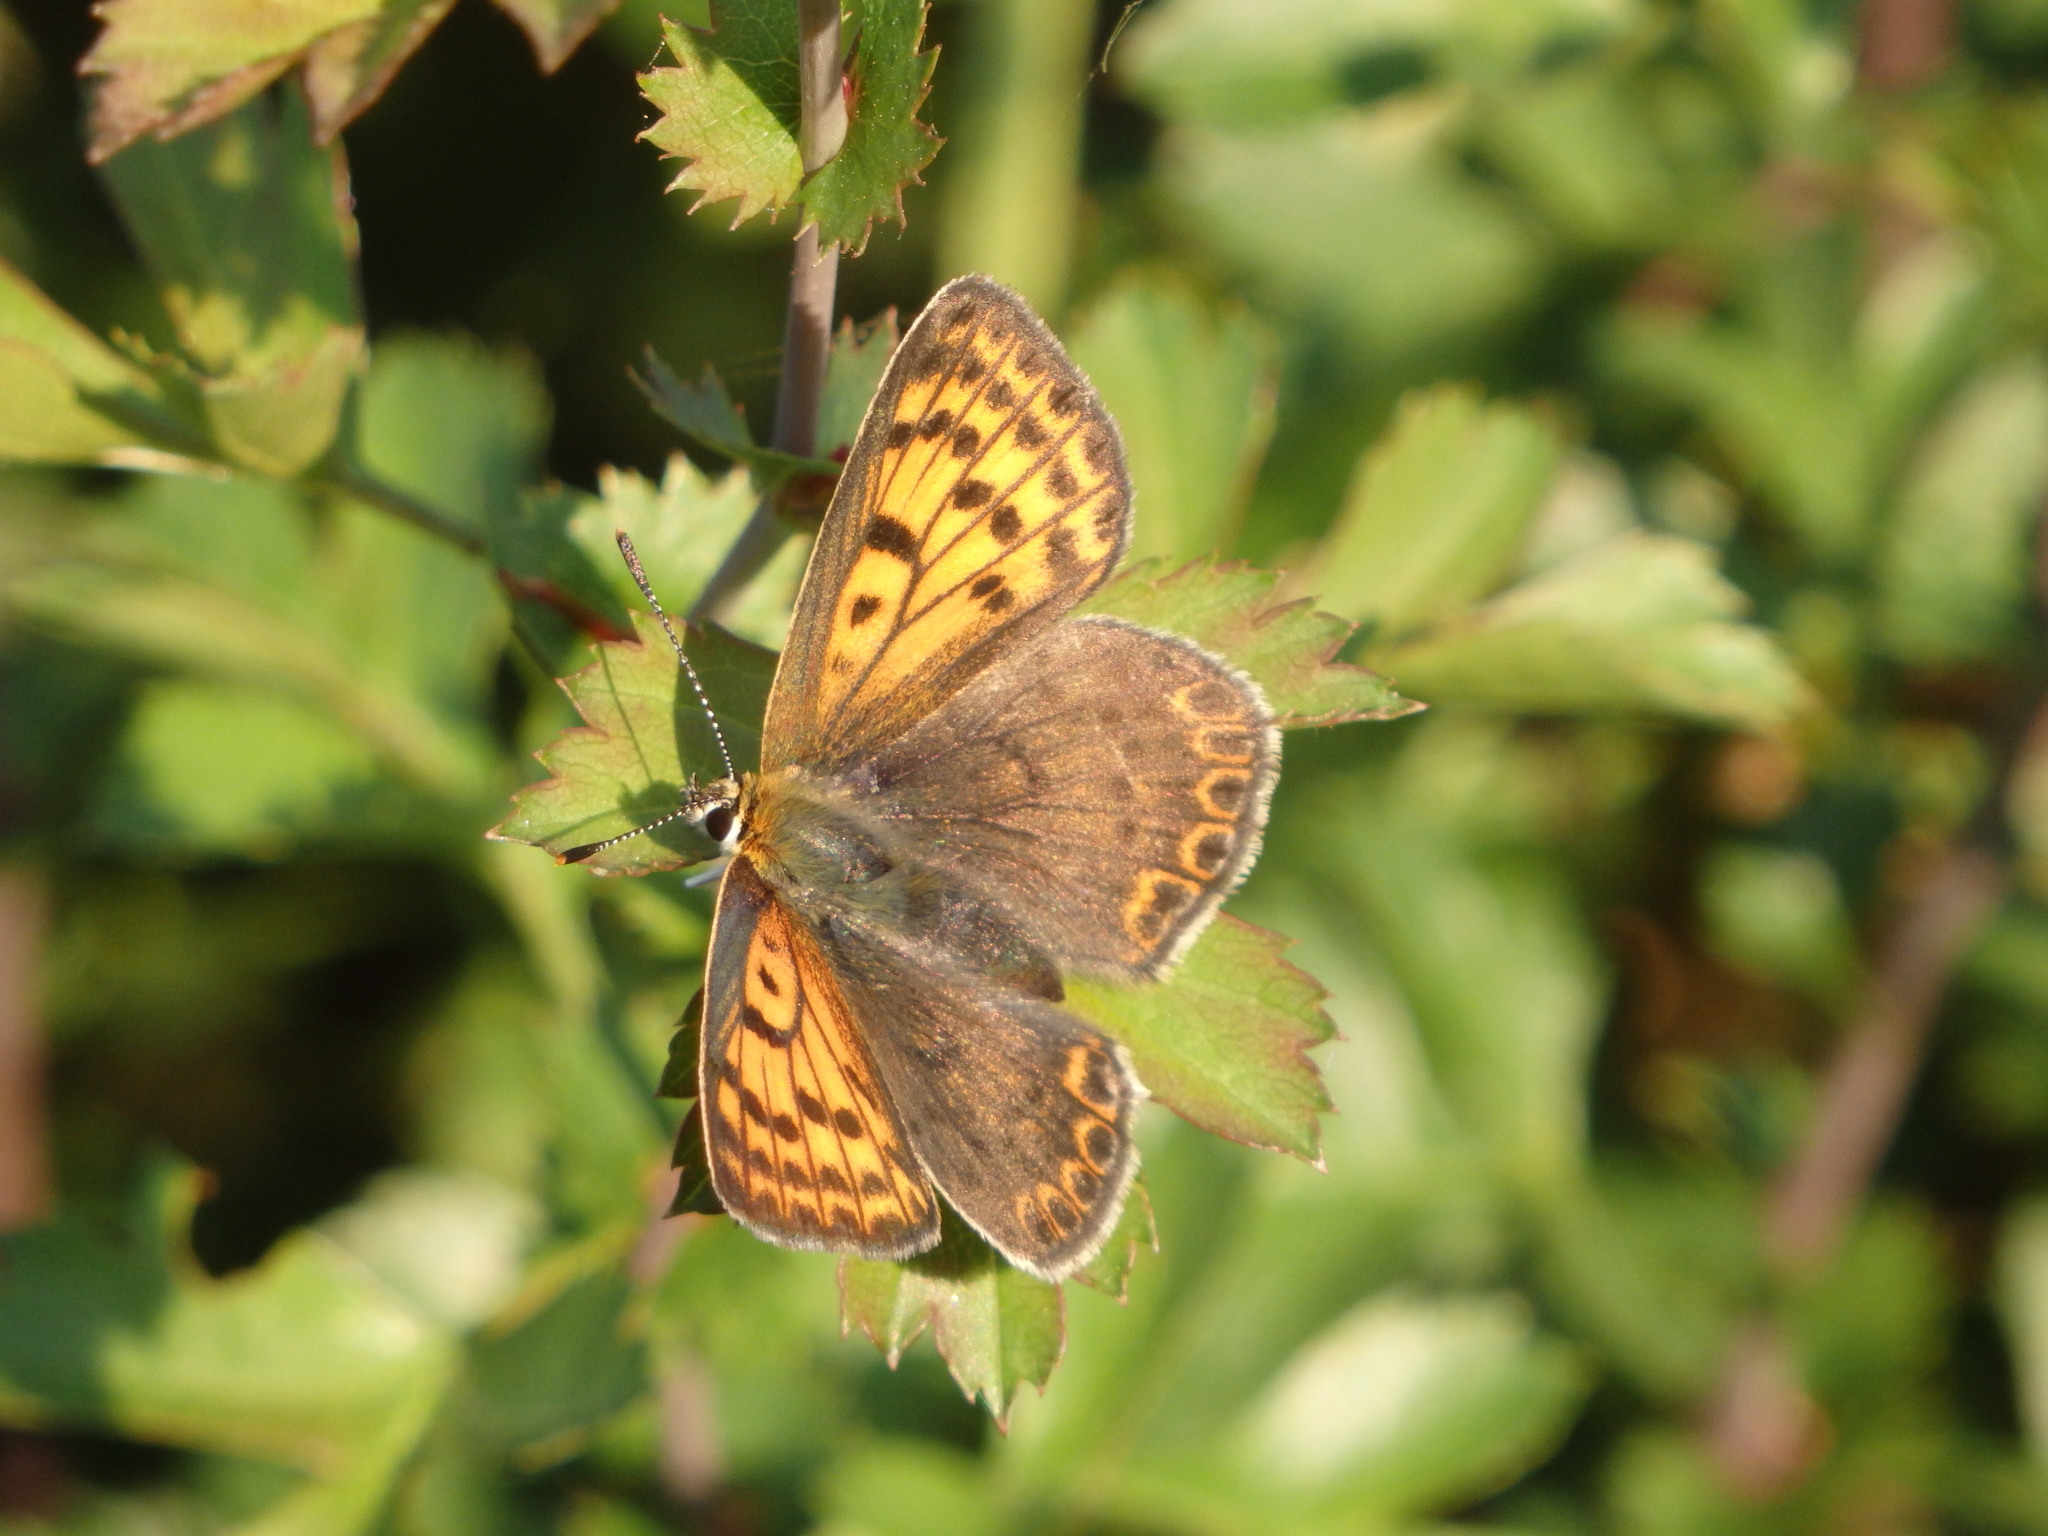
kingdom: Animalia
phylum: Arthropoda
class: Insecta
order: Lepidoptera
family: Lycaenidae
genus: Loweia
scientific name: Loweia tityrus
